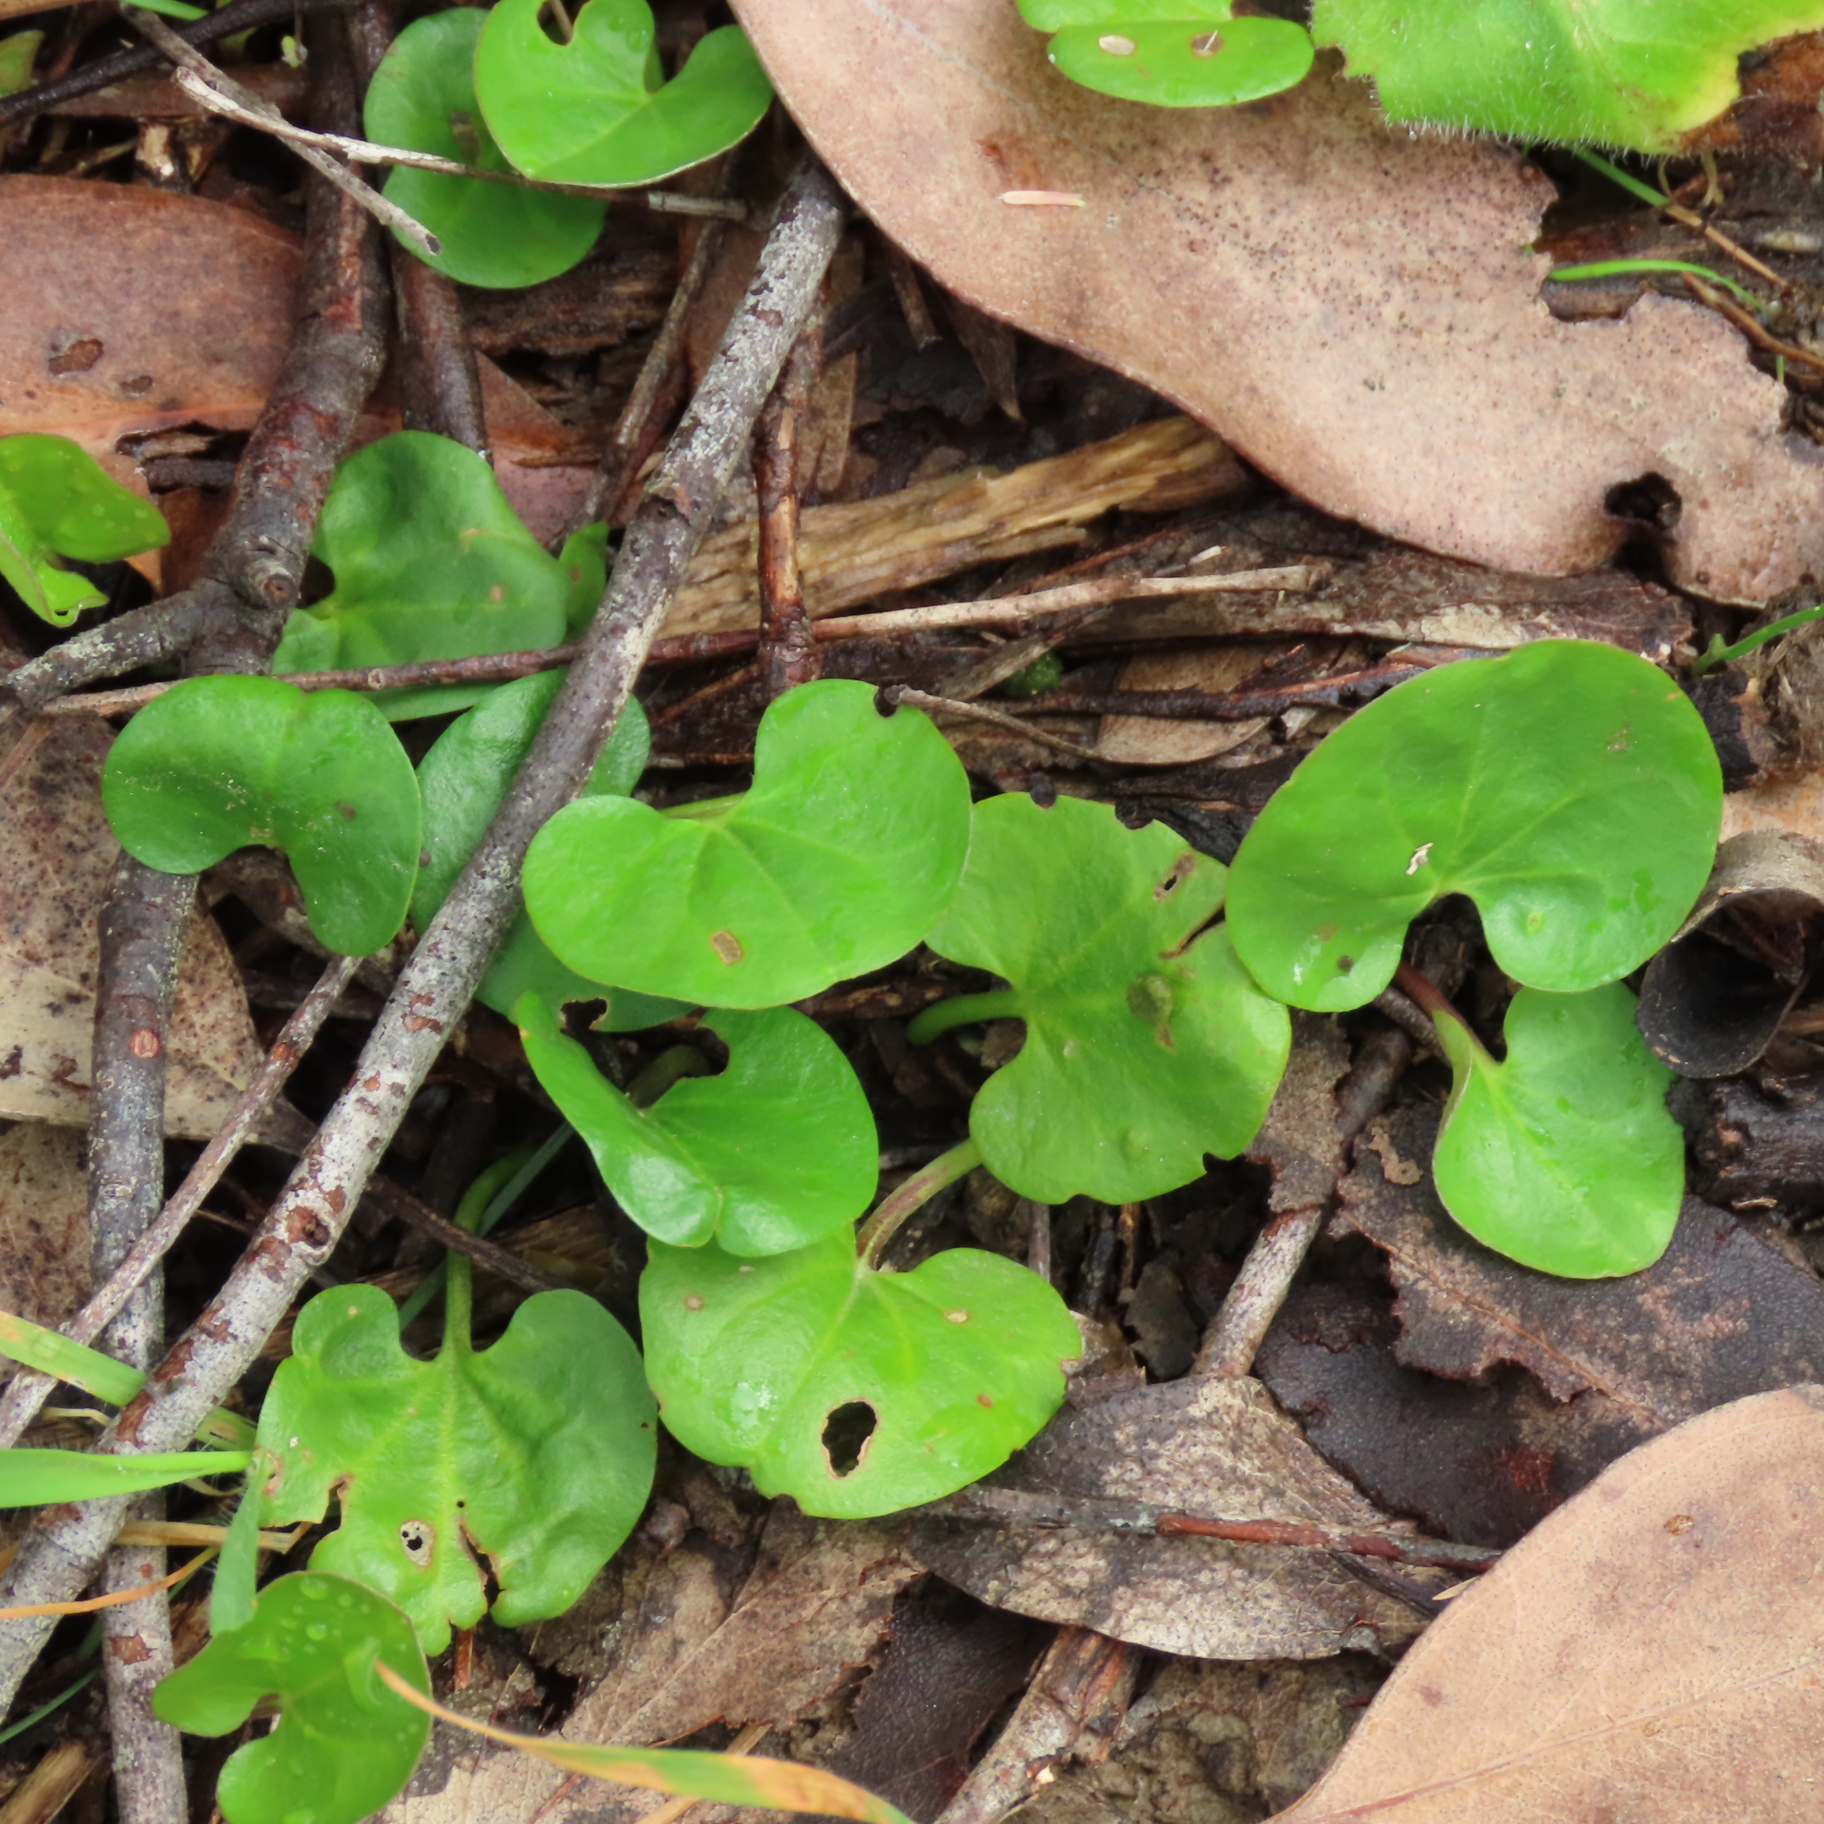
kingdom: Plantae
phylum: Tracheophyta
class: Magnoliopsida
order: Solanales
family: Convolvulaceae
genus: Dichondra
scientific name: Dichondra repens
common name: Kidneyweed
